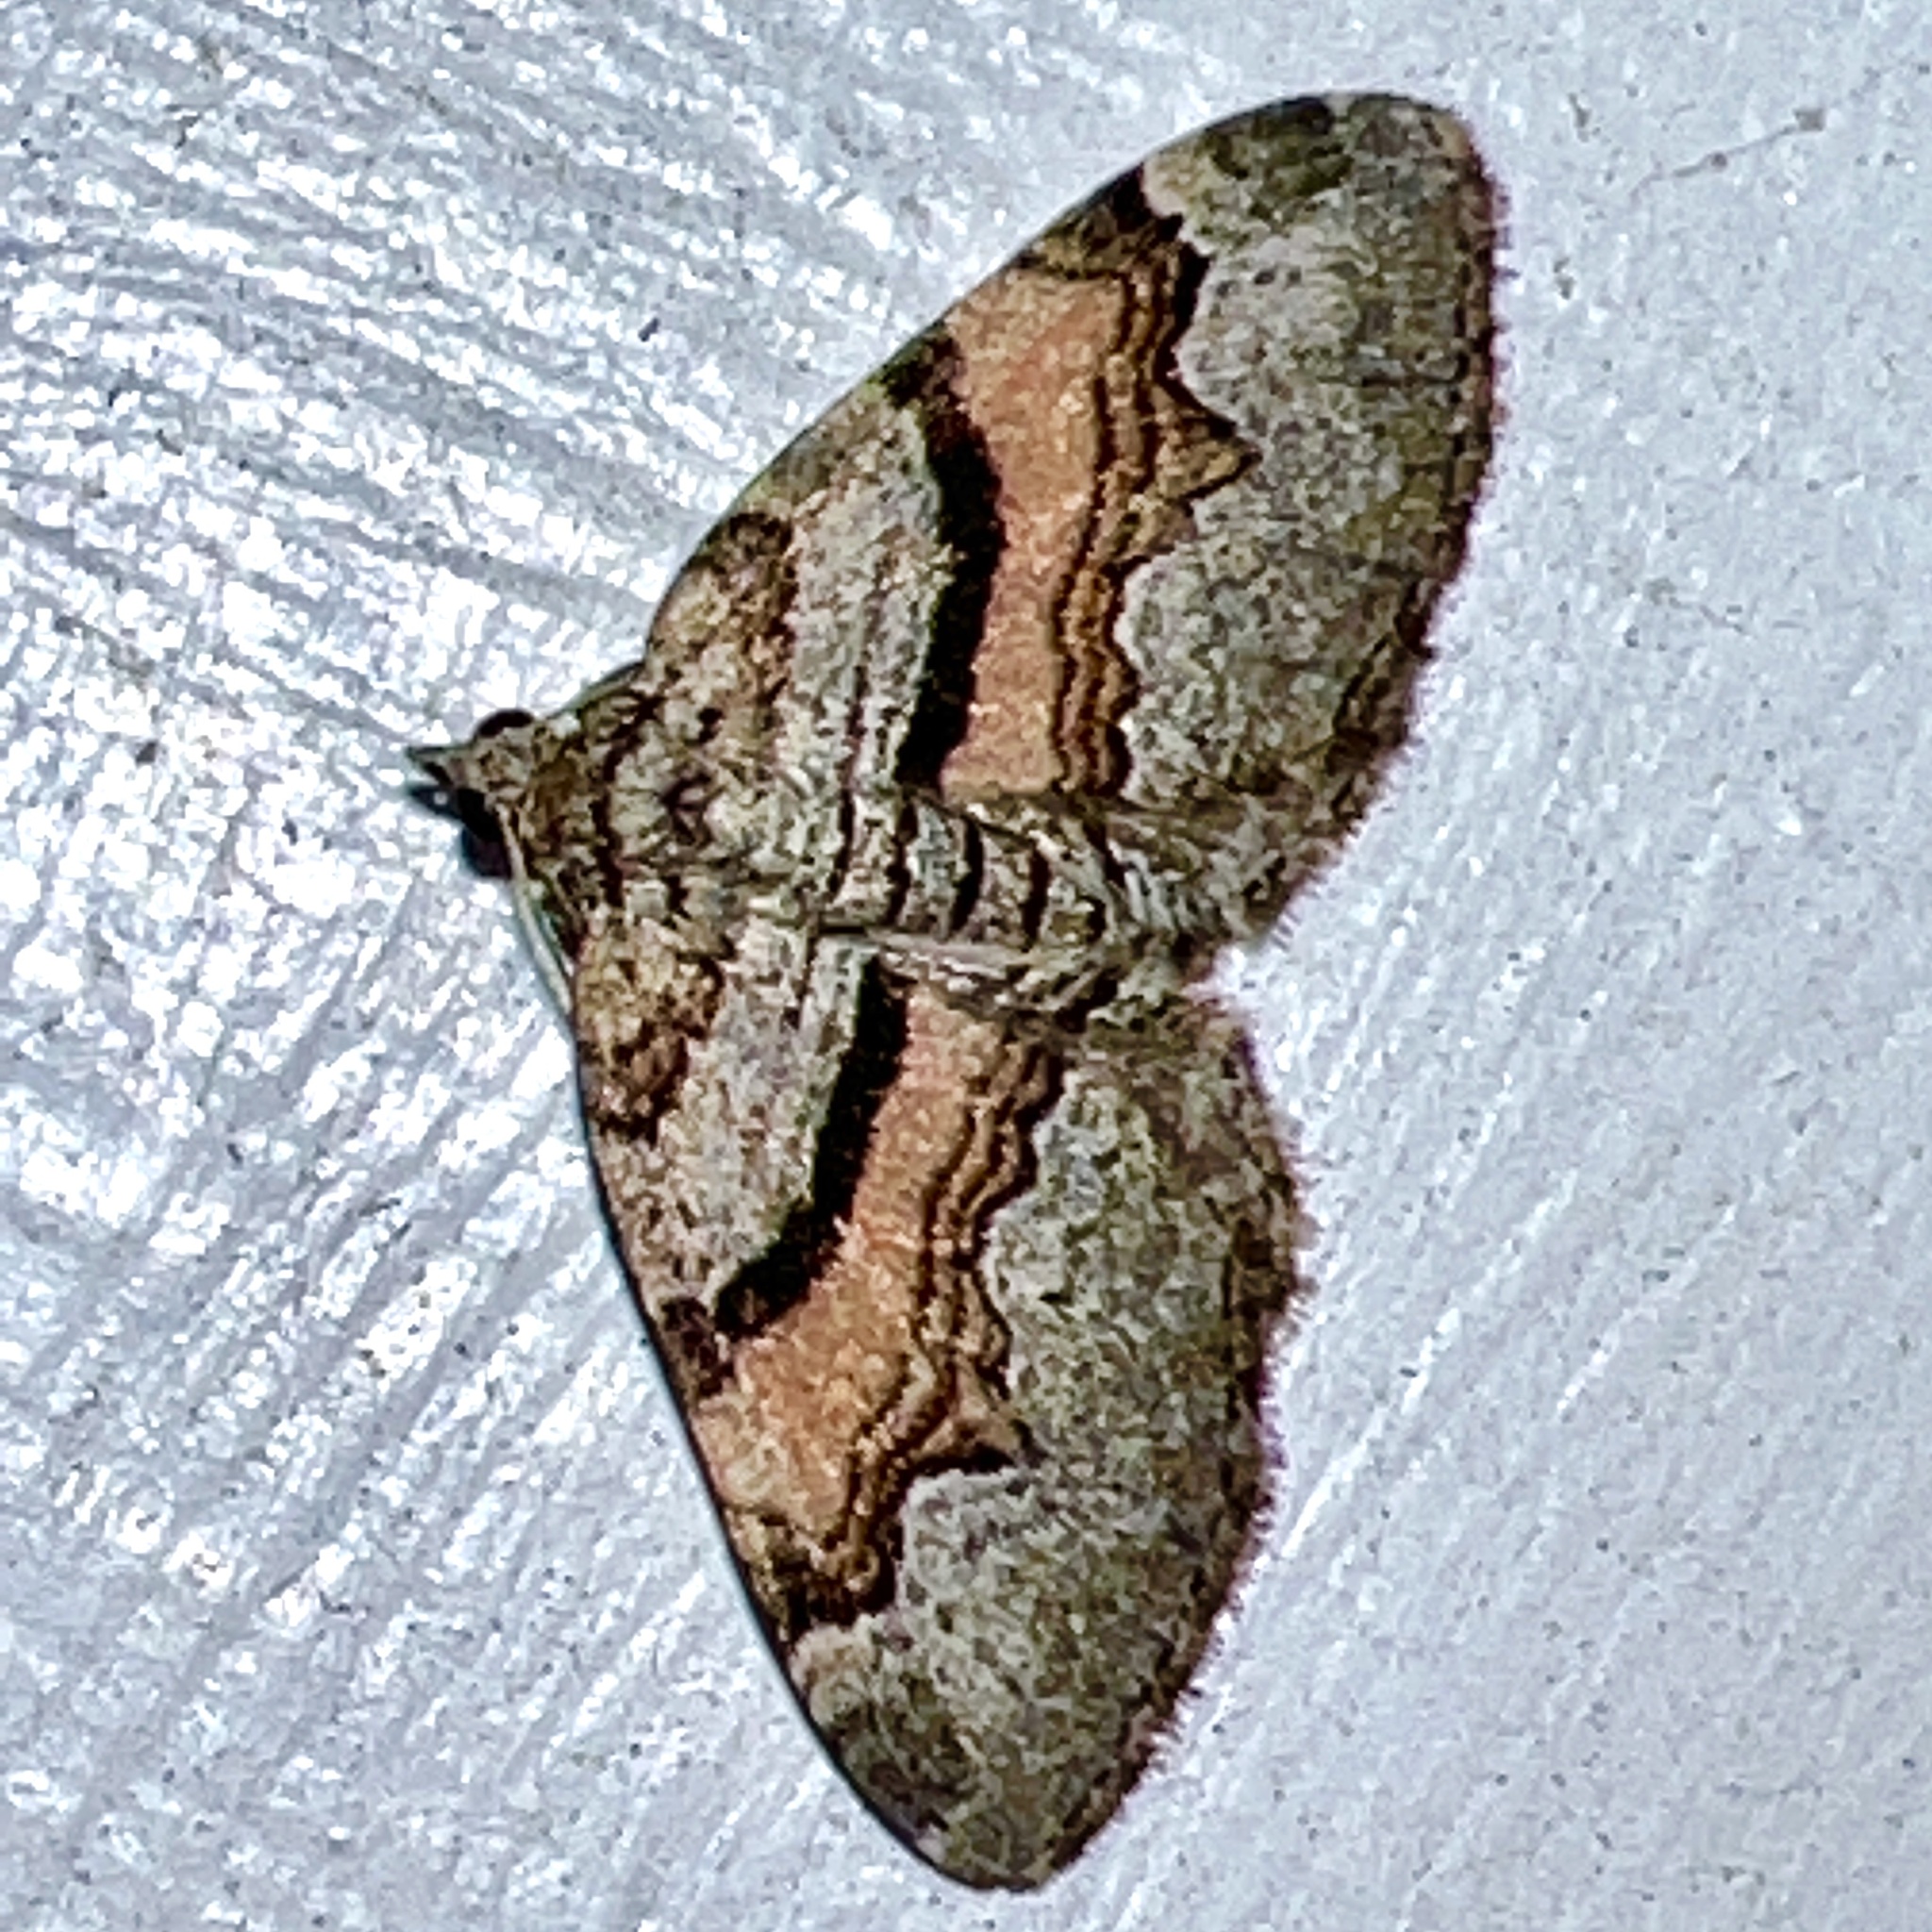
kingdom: Animalia
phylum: Arthropoda
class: Insecta
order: Lepidoptera
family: Geometridae
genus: Xanthorhoe
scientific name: Xanthorhoe labradorensis
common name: Labrador carpet
